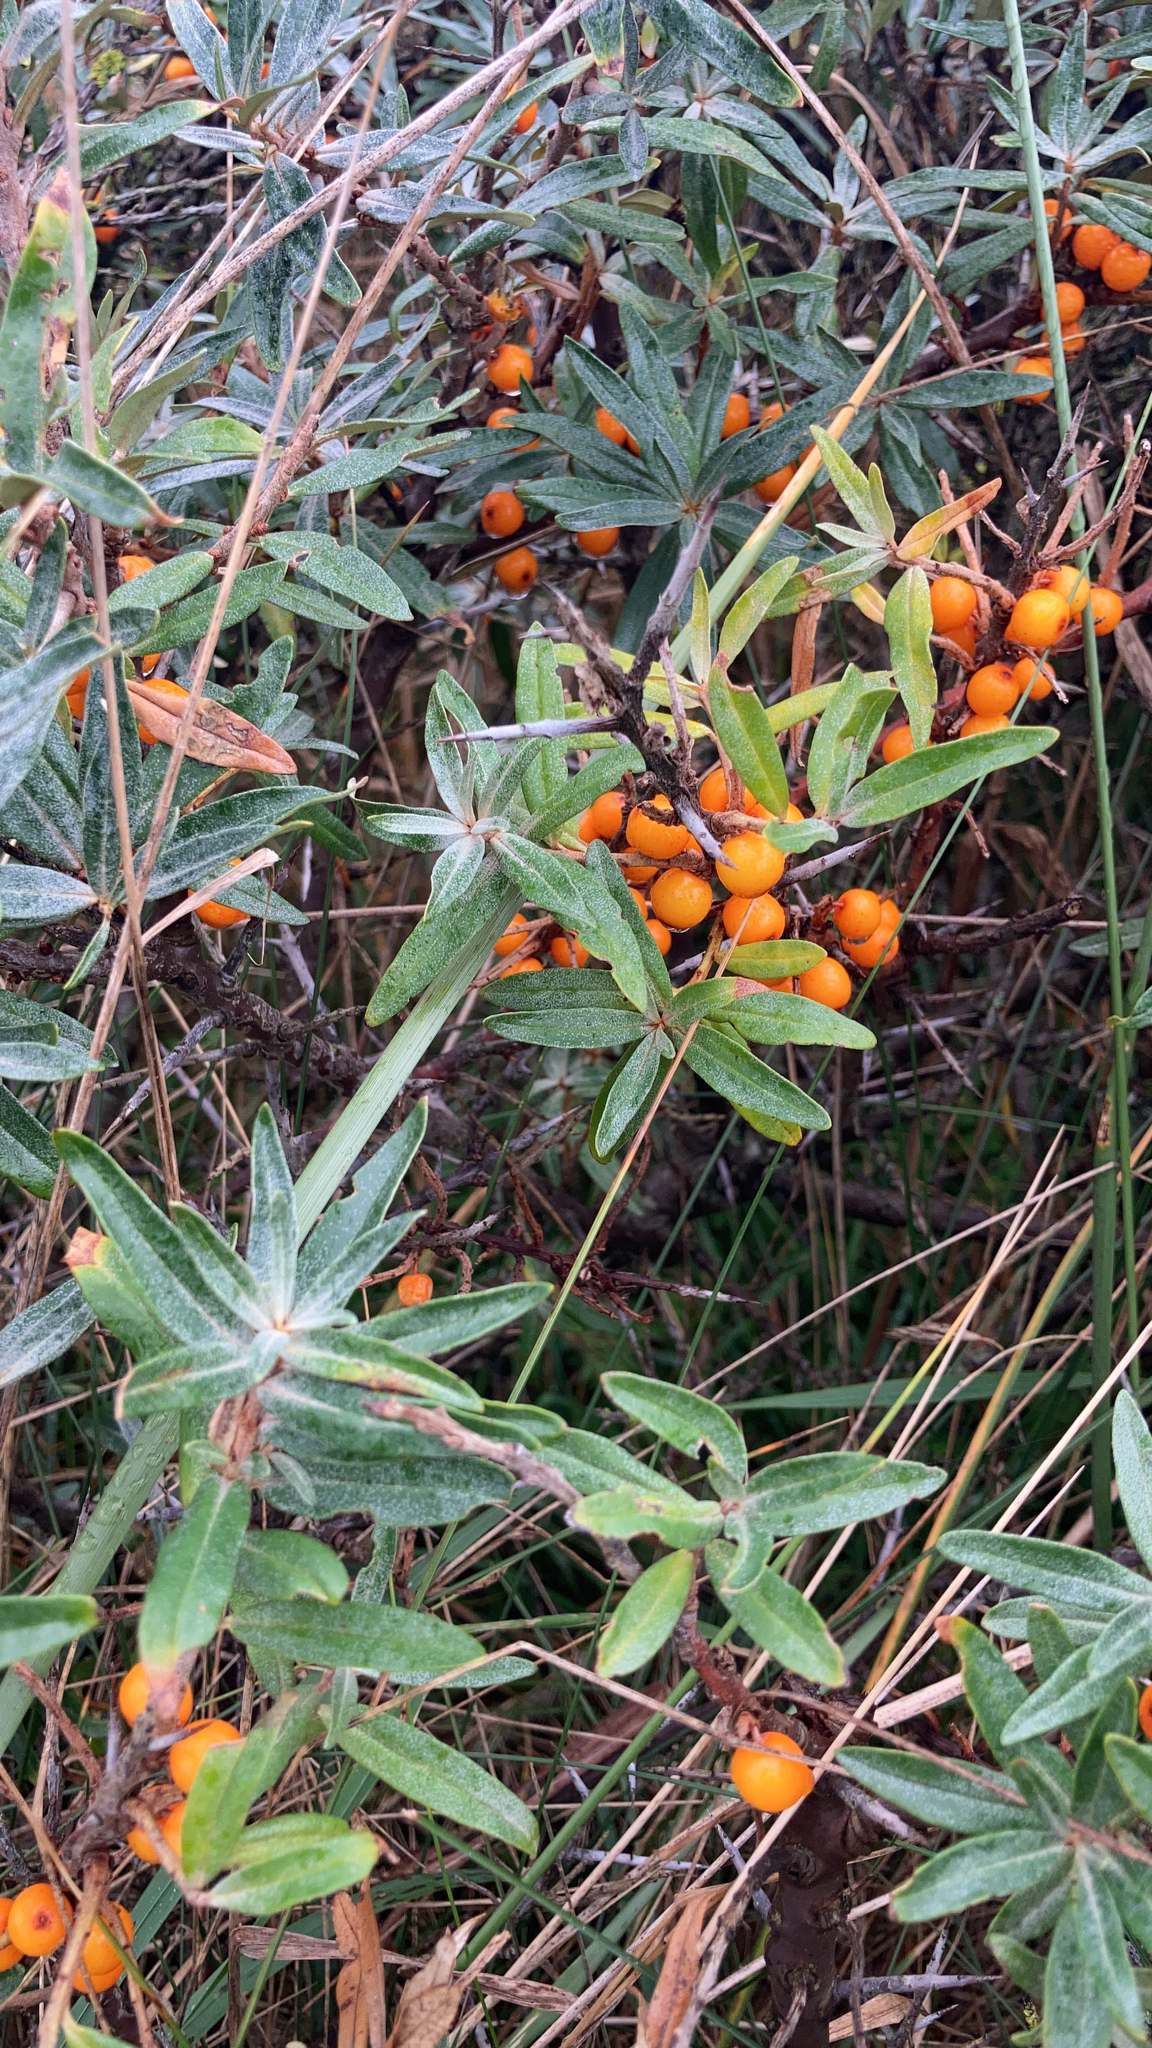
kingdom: Plantae
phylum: Tracheophyta
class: Magnoliopsida
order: Rosales
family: Elaeagnaceae
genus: Hippophae
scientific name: Hippophae rhamnoides
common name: Sea-buckthorn
